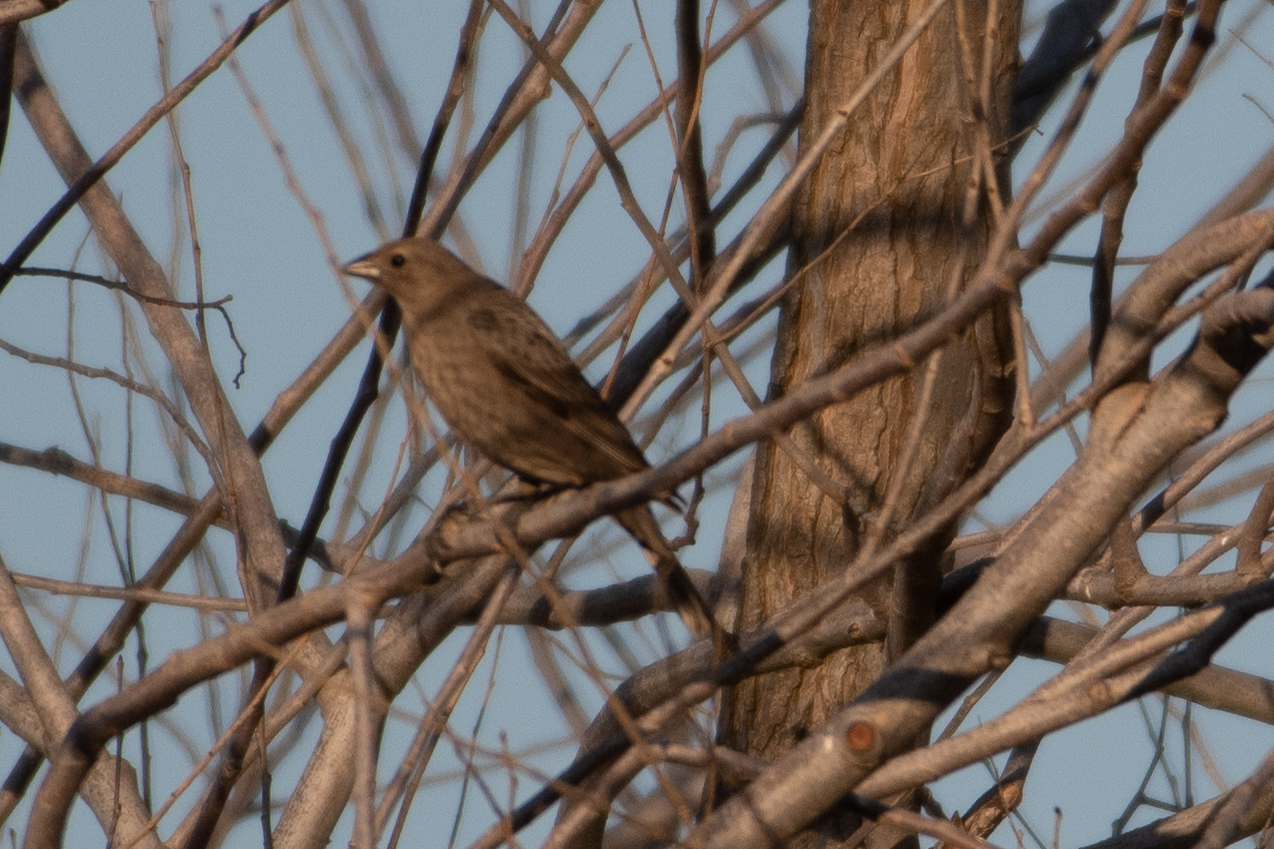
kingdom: Animalia
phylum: Chordata
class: Aves
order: Passeriformes
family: Icteridae
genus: Molothrus
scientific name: Molothrus ater
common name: Brown-headed cowbird
